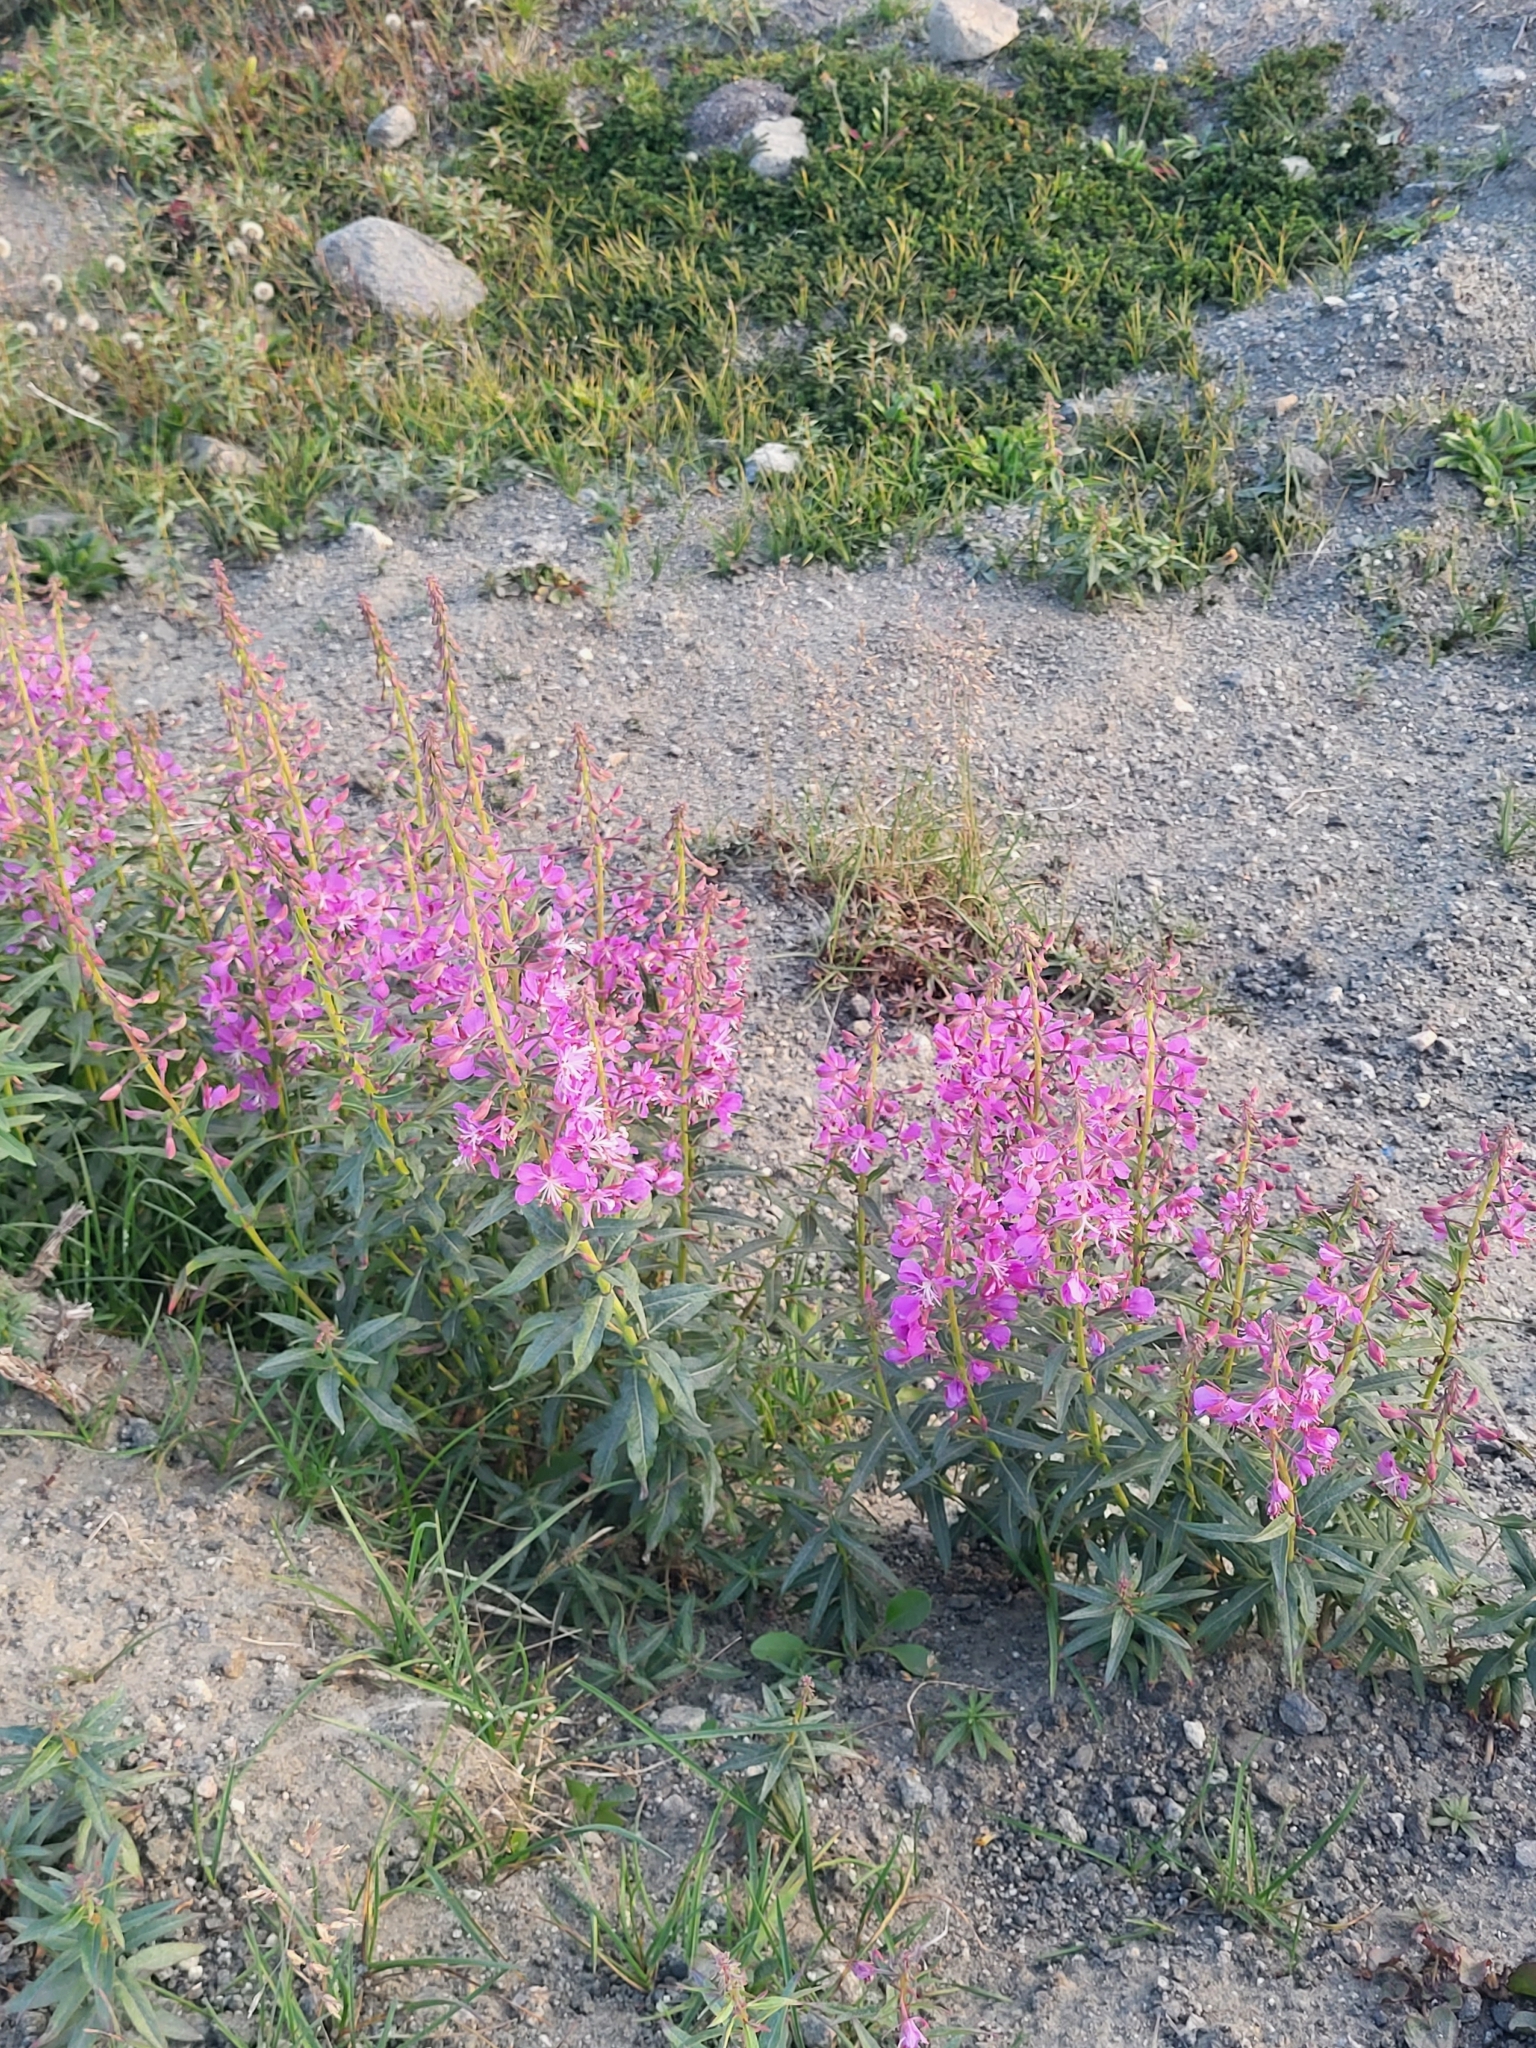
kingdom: Plantae
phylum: Tracheophyta
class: Magnoliopsida
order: Myrtales
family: Onagraceae
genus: Chamaenerion
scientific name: Chamaenerion angustifolium
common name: Fireweed
